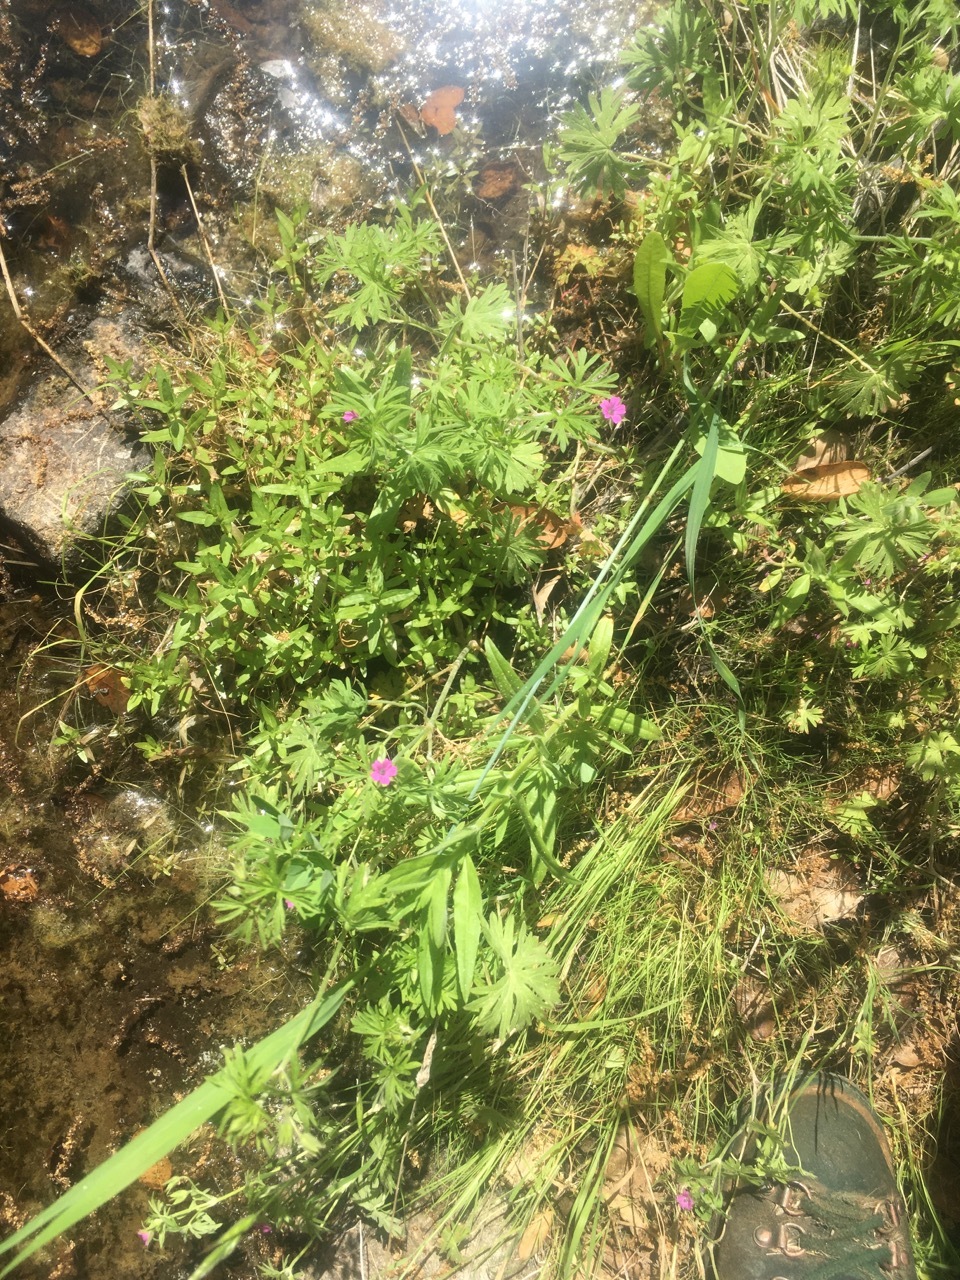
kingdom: Plantae
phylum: Tracheophyta
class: Magnoliopsida
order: Geraniales
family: Geraniaceae
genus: Geranium
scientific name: Geranium dissectum
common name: Cut-leaved crane's-bill
